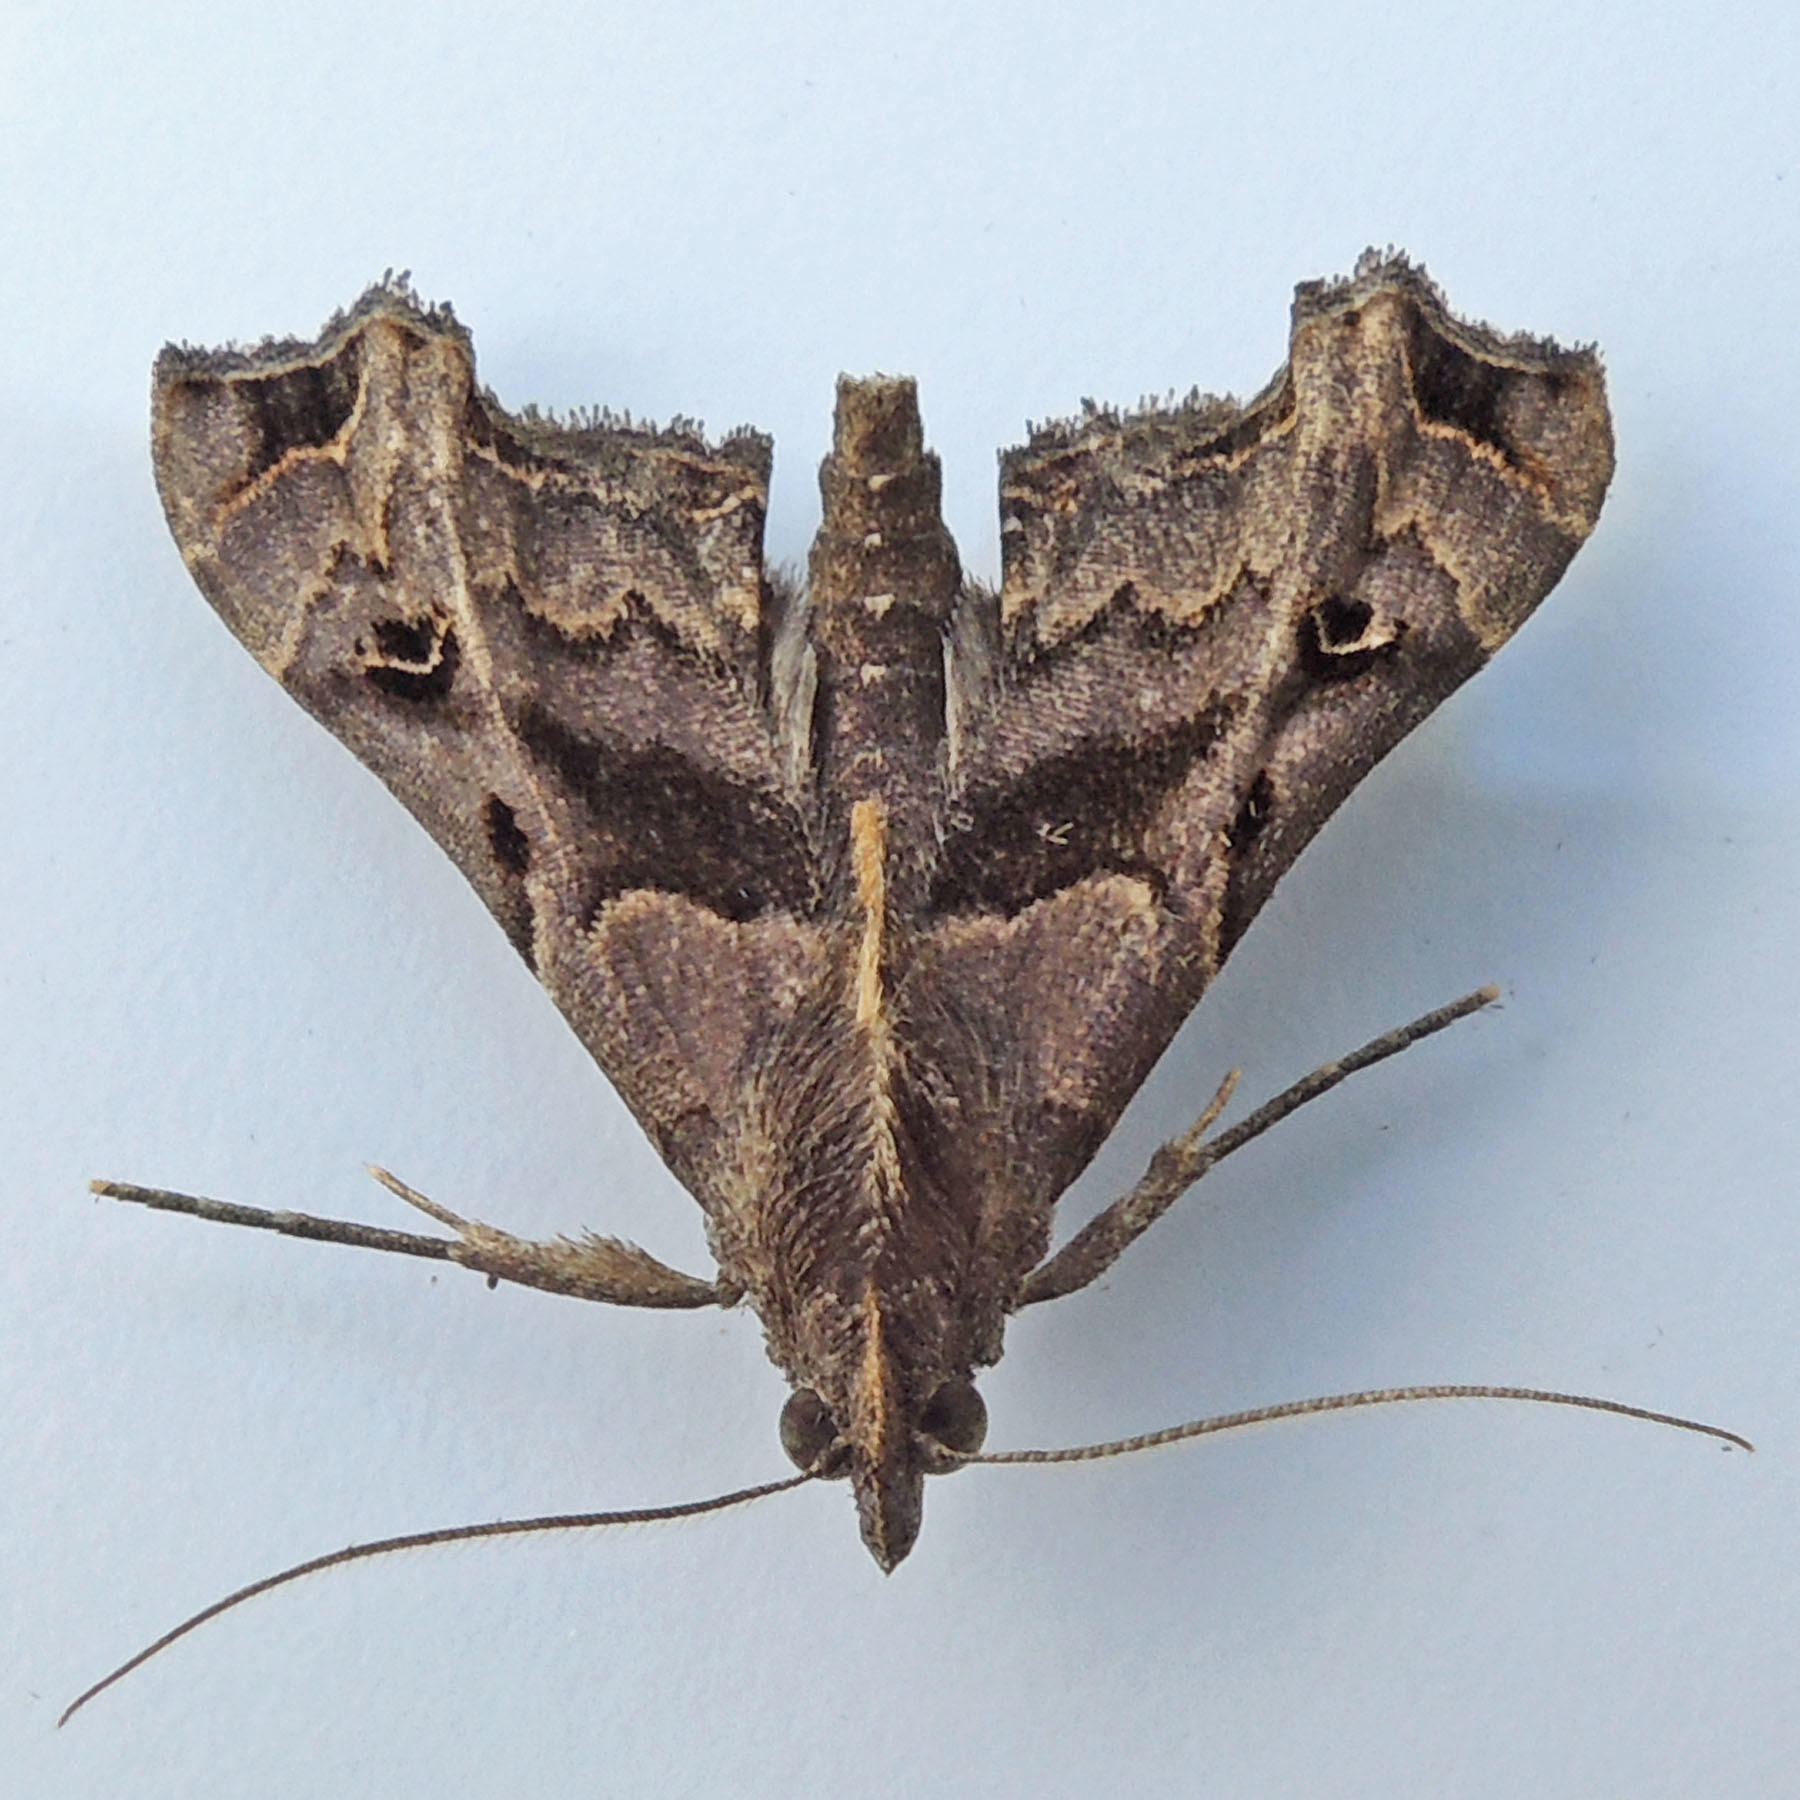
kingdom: Animalia
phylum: Arthropoda
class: Insecta
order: Lepidoptera
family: Erebidae
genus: Palthis
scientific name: Palthis asopialis
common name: Faint-spotted palthis moth
